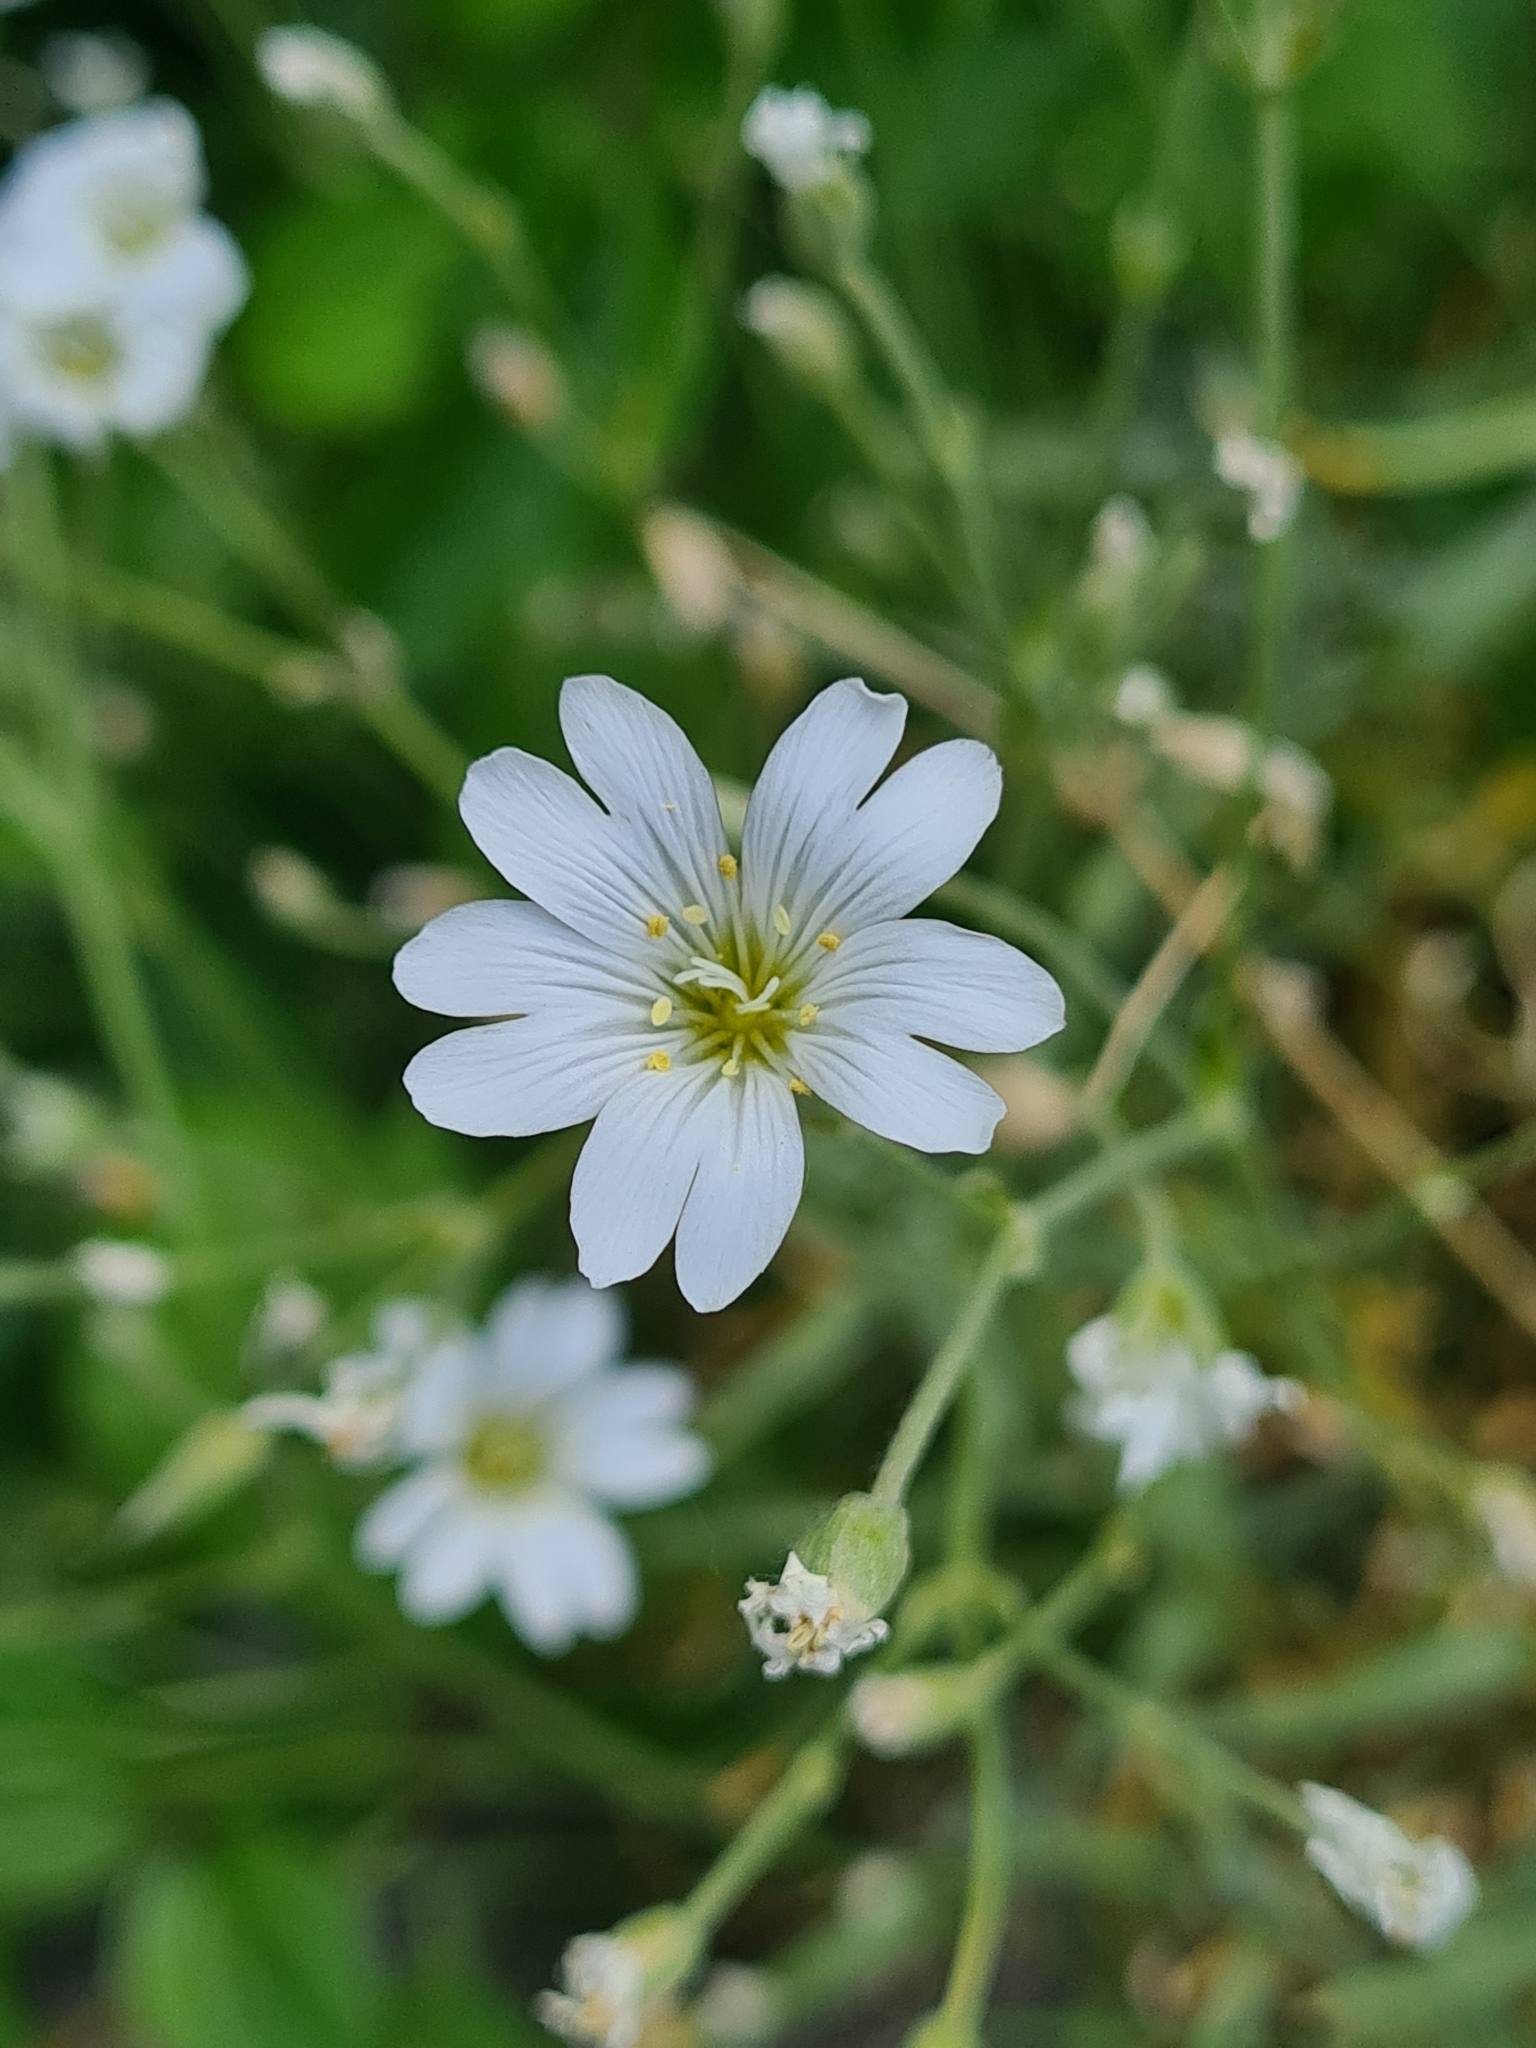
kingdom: Plantae
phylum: Tracheophyta
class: Magnoliopsida
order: Caryophyllales
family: Caryophyllaceae
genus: Cerastium
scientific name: Cerastium tomentosum
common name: Snow-in-summer
